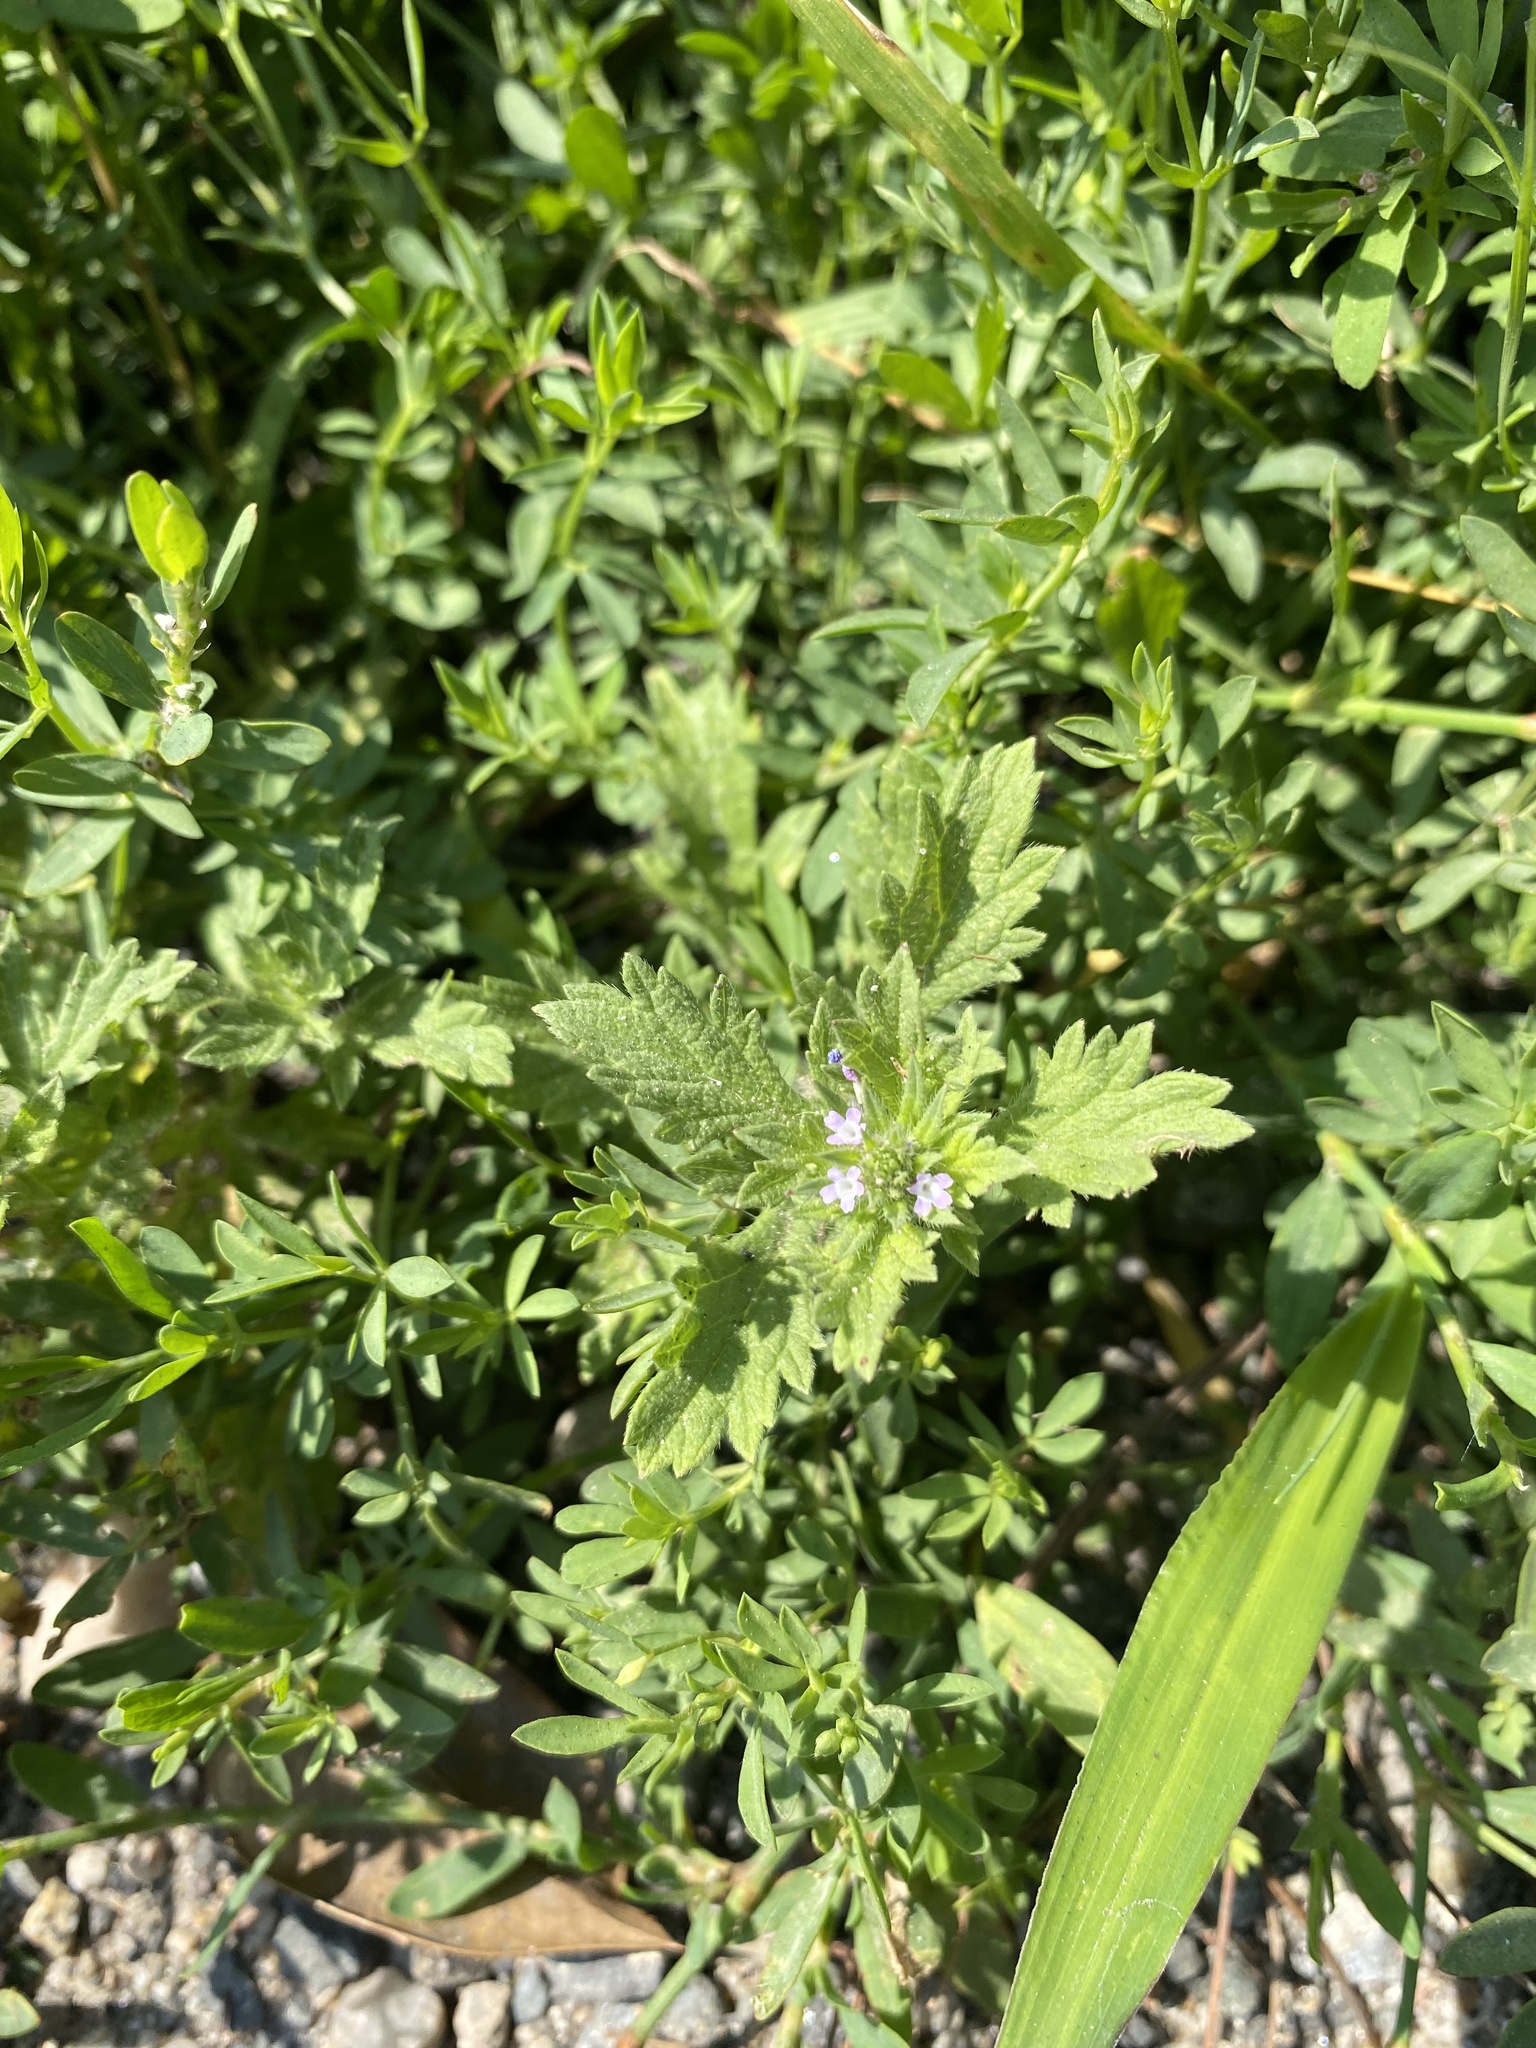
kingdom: Plantae
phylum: Tracheophyta
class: Magnoliopsida
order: Lamiales
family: Verbenaceae
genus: Verbena
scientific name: Verbena bracteata
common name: Bracted vervain
